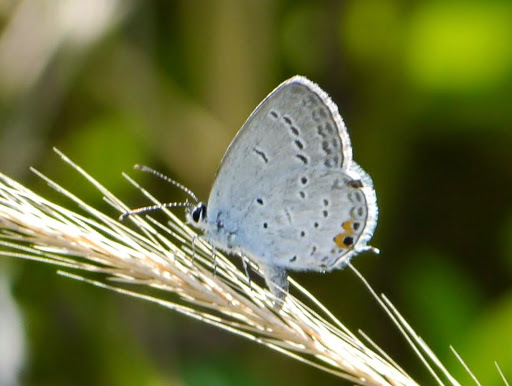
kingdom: Animalia
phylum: Arthropoda
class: Insecta
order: Lepidoptera
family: Lycaenidae
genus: Elkalyce
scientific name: Elkalyce comyntas
